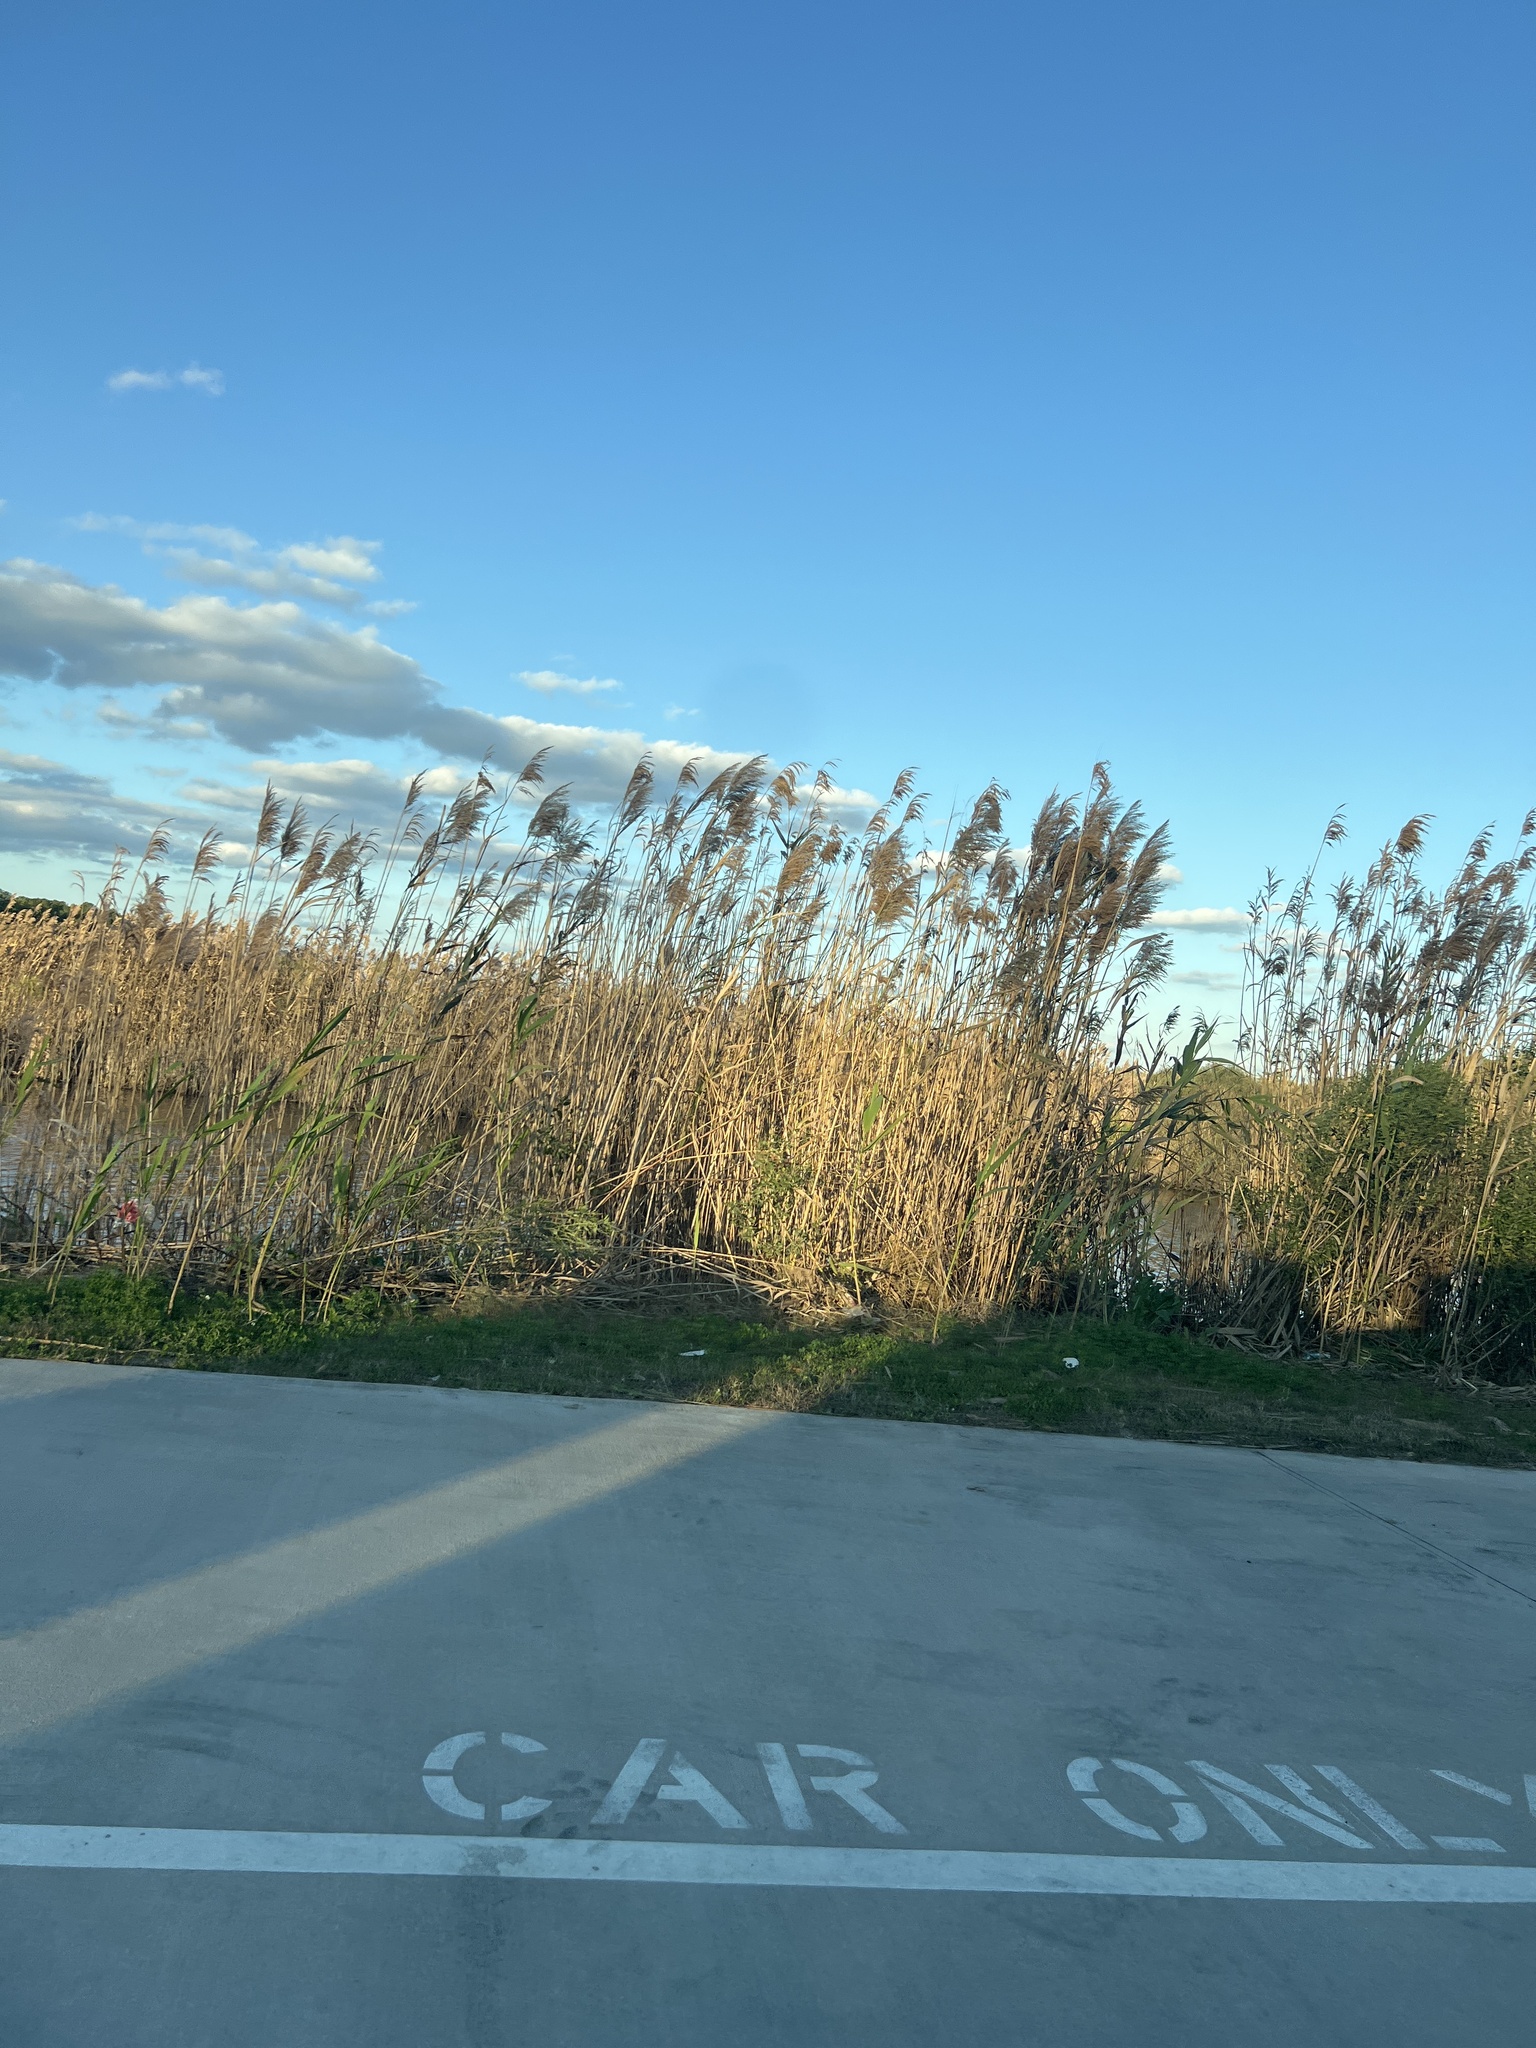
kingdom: Plantae
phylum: Tracheophyta
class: Liliopsida
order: Poales
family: Poaceae
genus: Phragmites
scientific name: Phragmites australis
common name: Common reed
